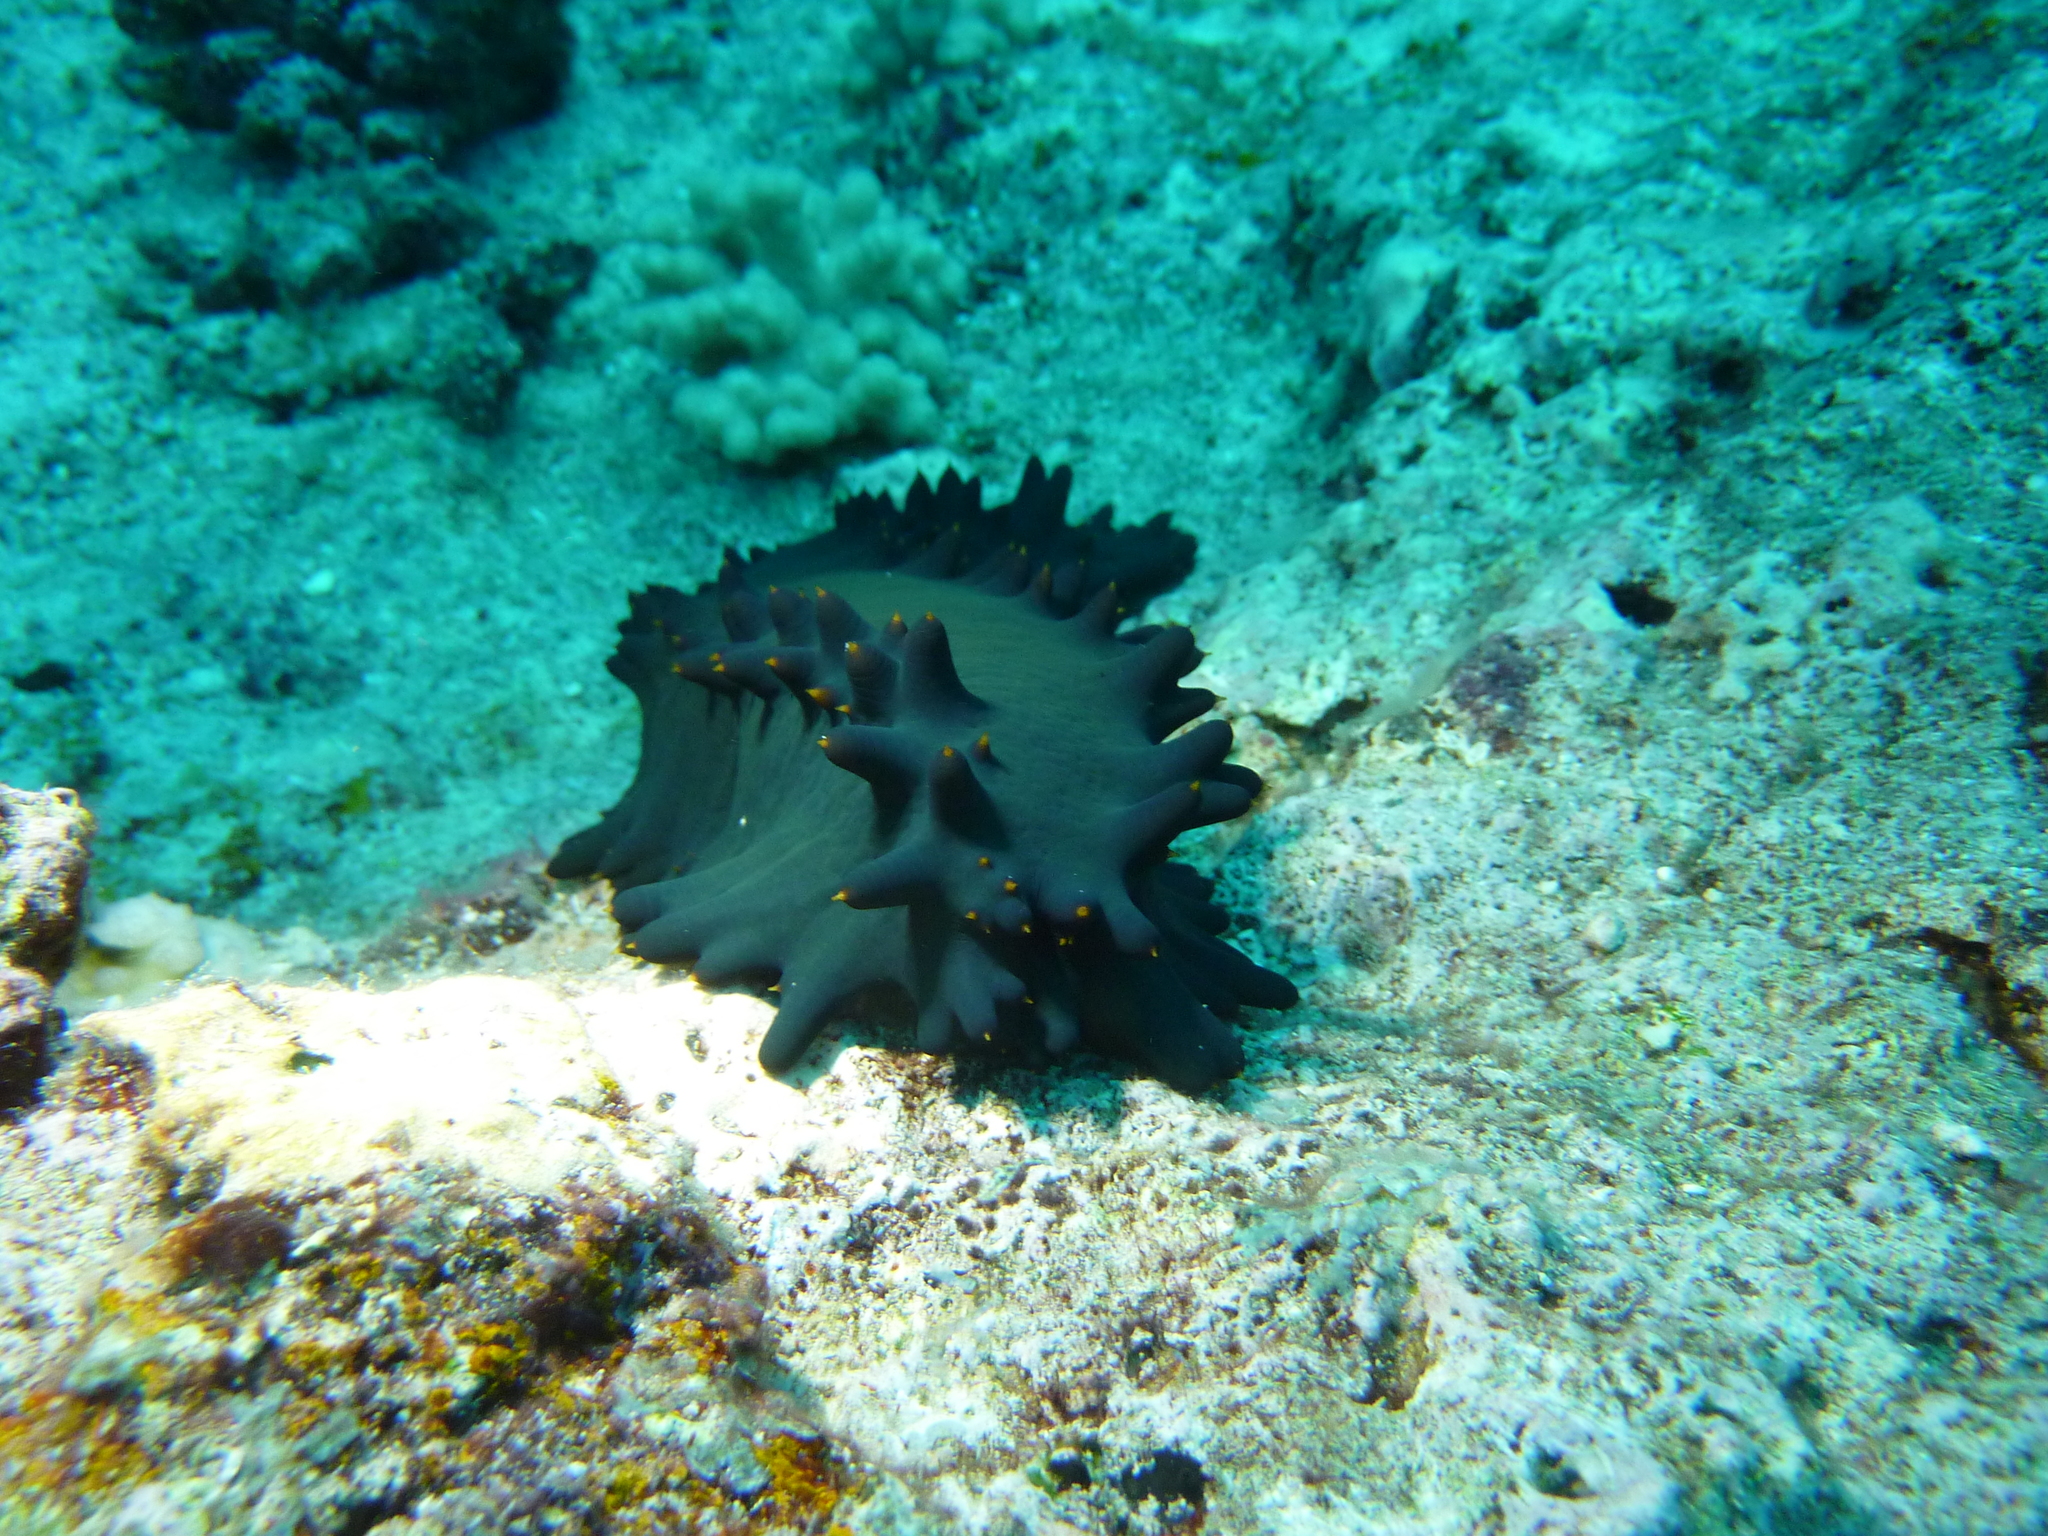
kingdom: Animalia
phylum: Echinodermata
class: Holothuroidea
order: Synallactida
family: Stichopodidae
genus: Stichopus
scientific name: Stichopus chloronotus
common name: Greenfish
